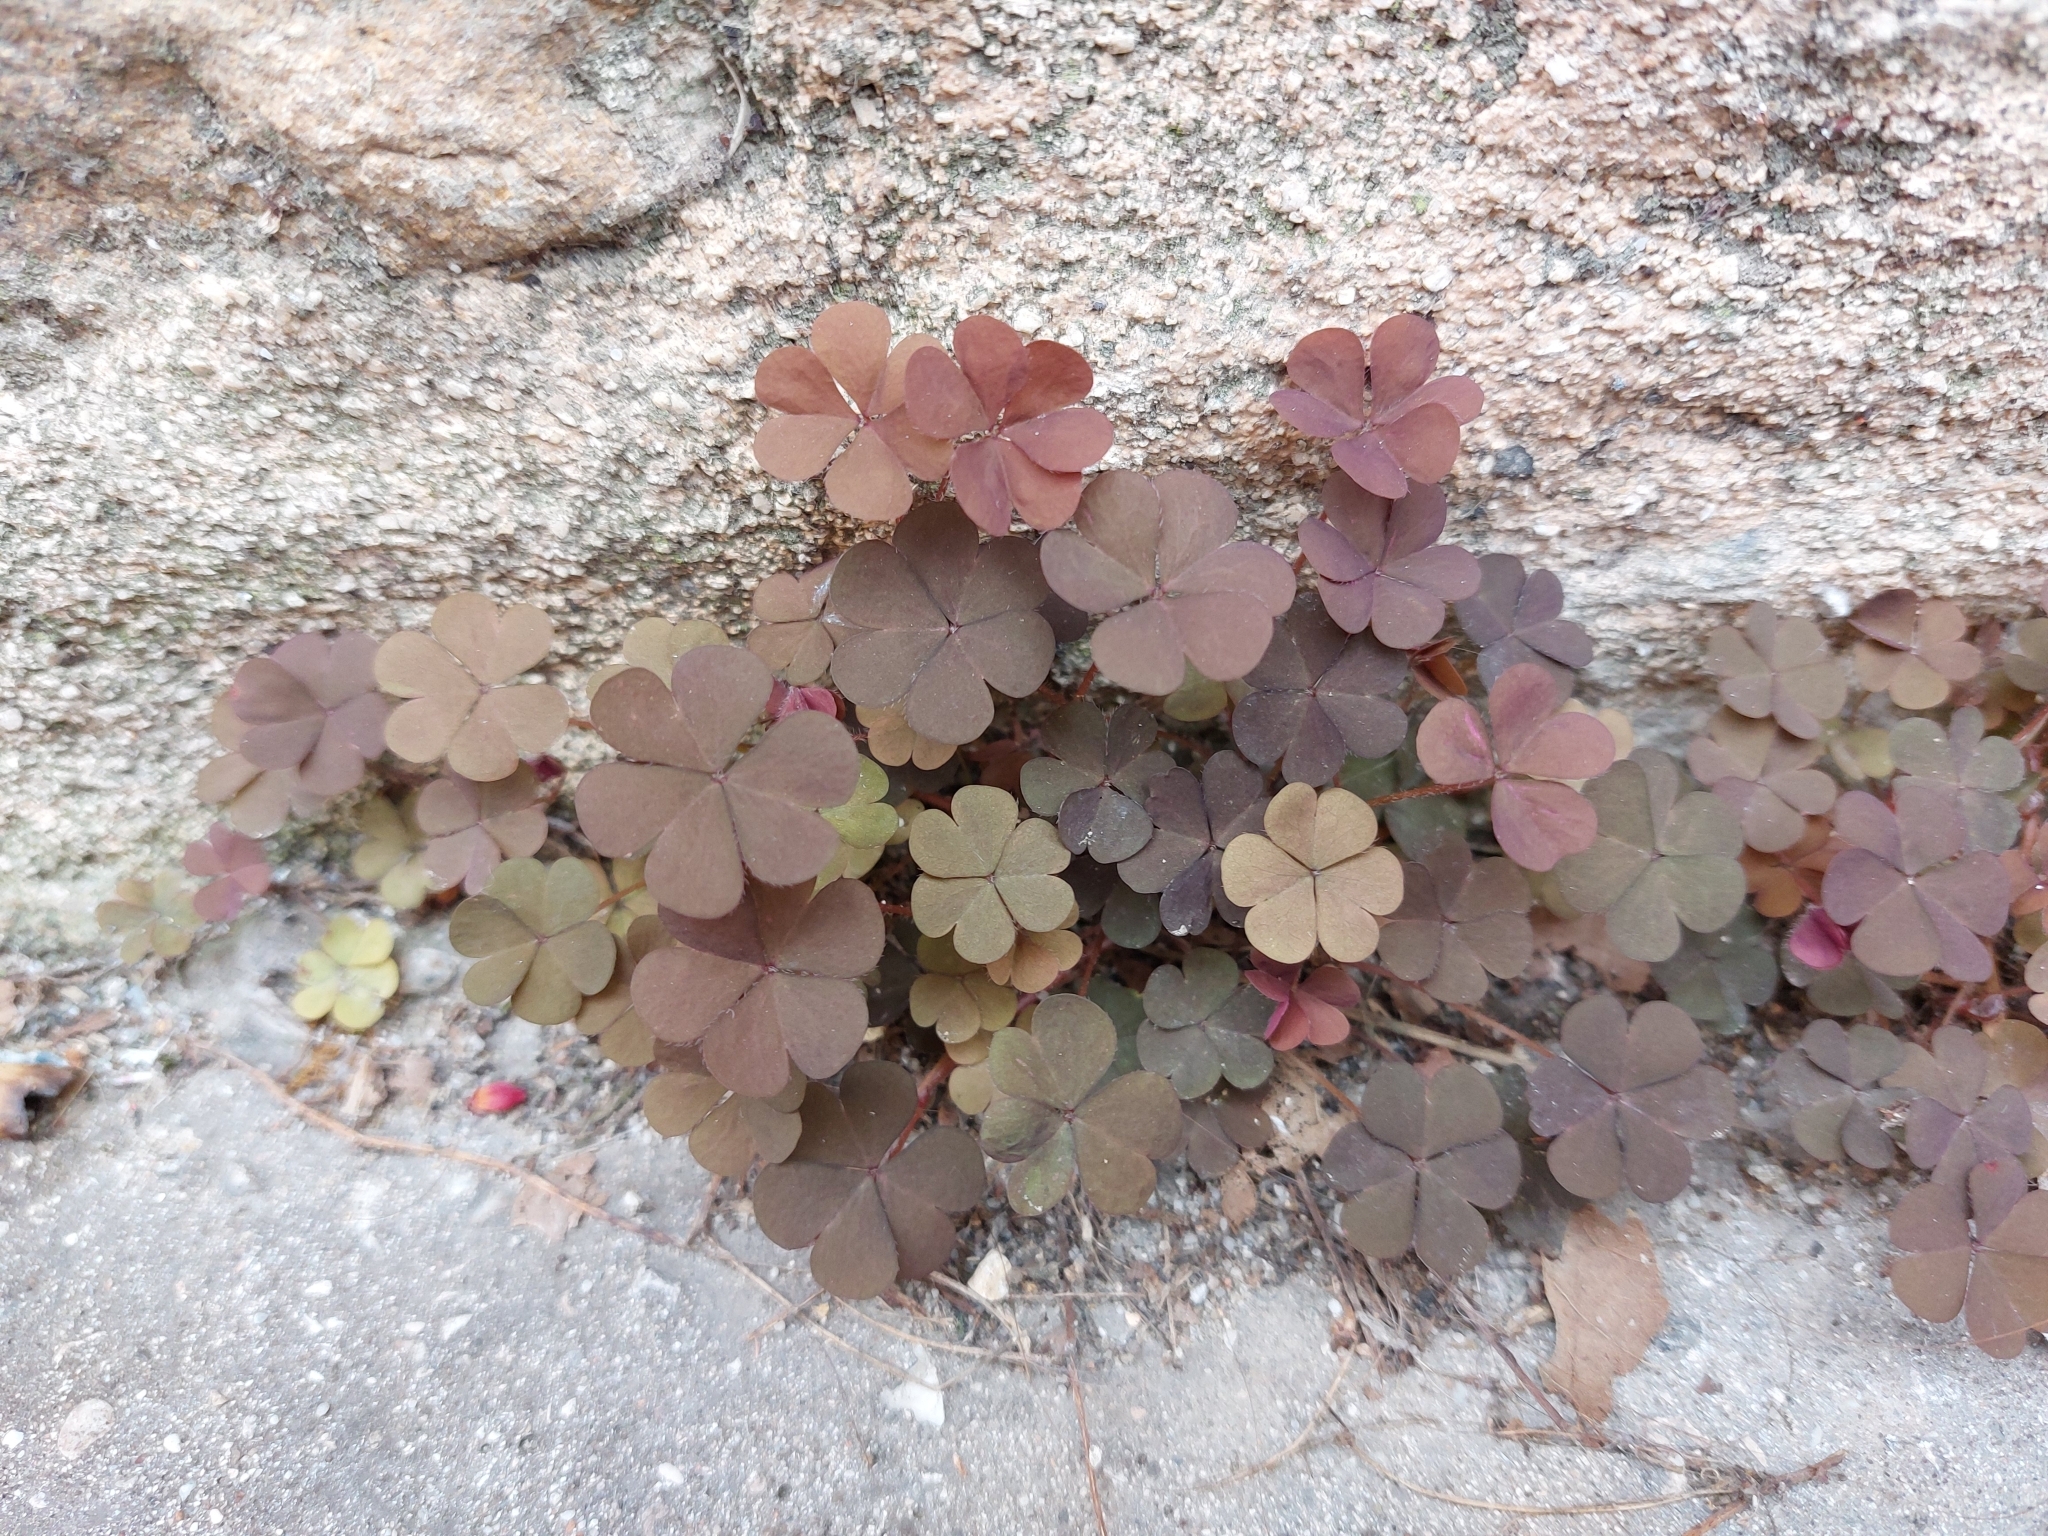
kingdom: Plantae
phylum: Tracheophyta
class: Magnoliopsida
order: Oxalidales
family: Oxalidaceae
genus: Oxalis
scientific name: Oxalis corniculata
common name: Procumbent yellow-sorrel
